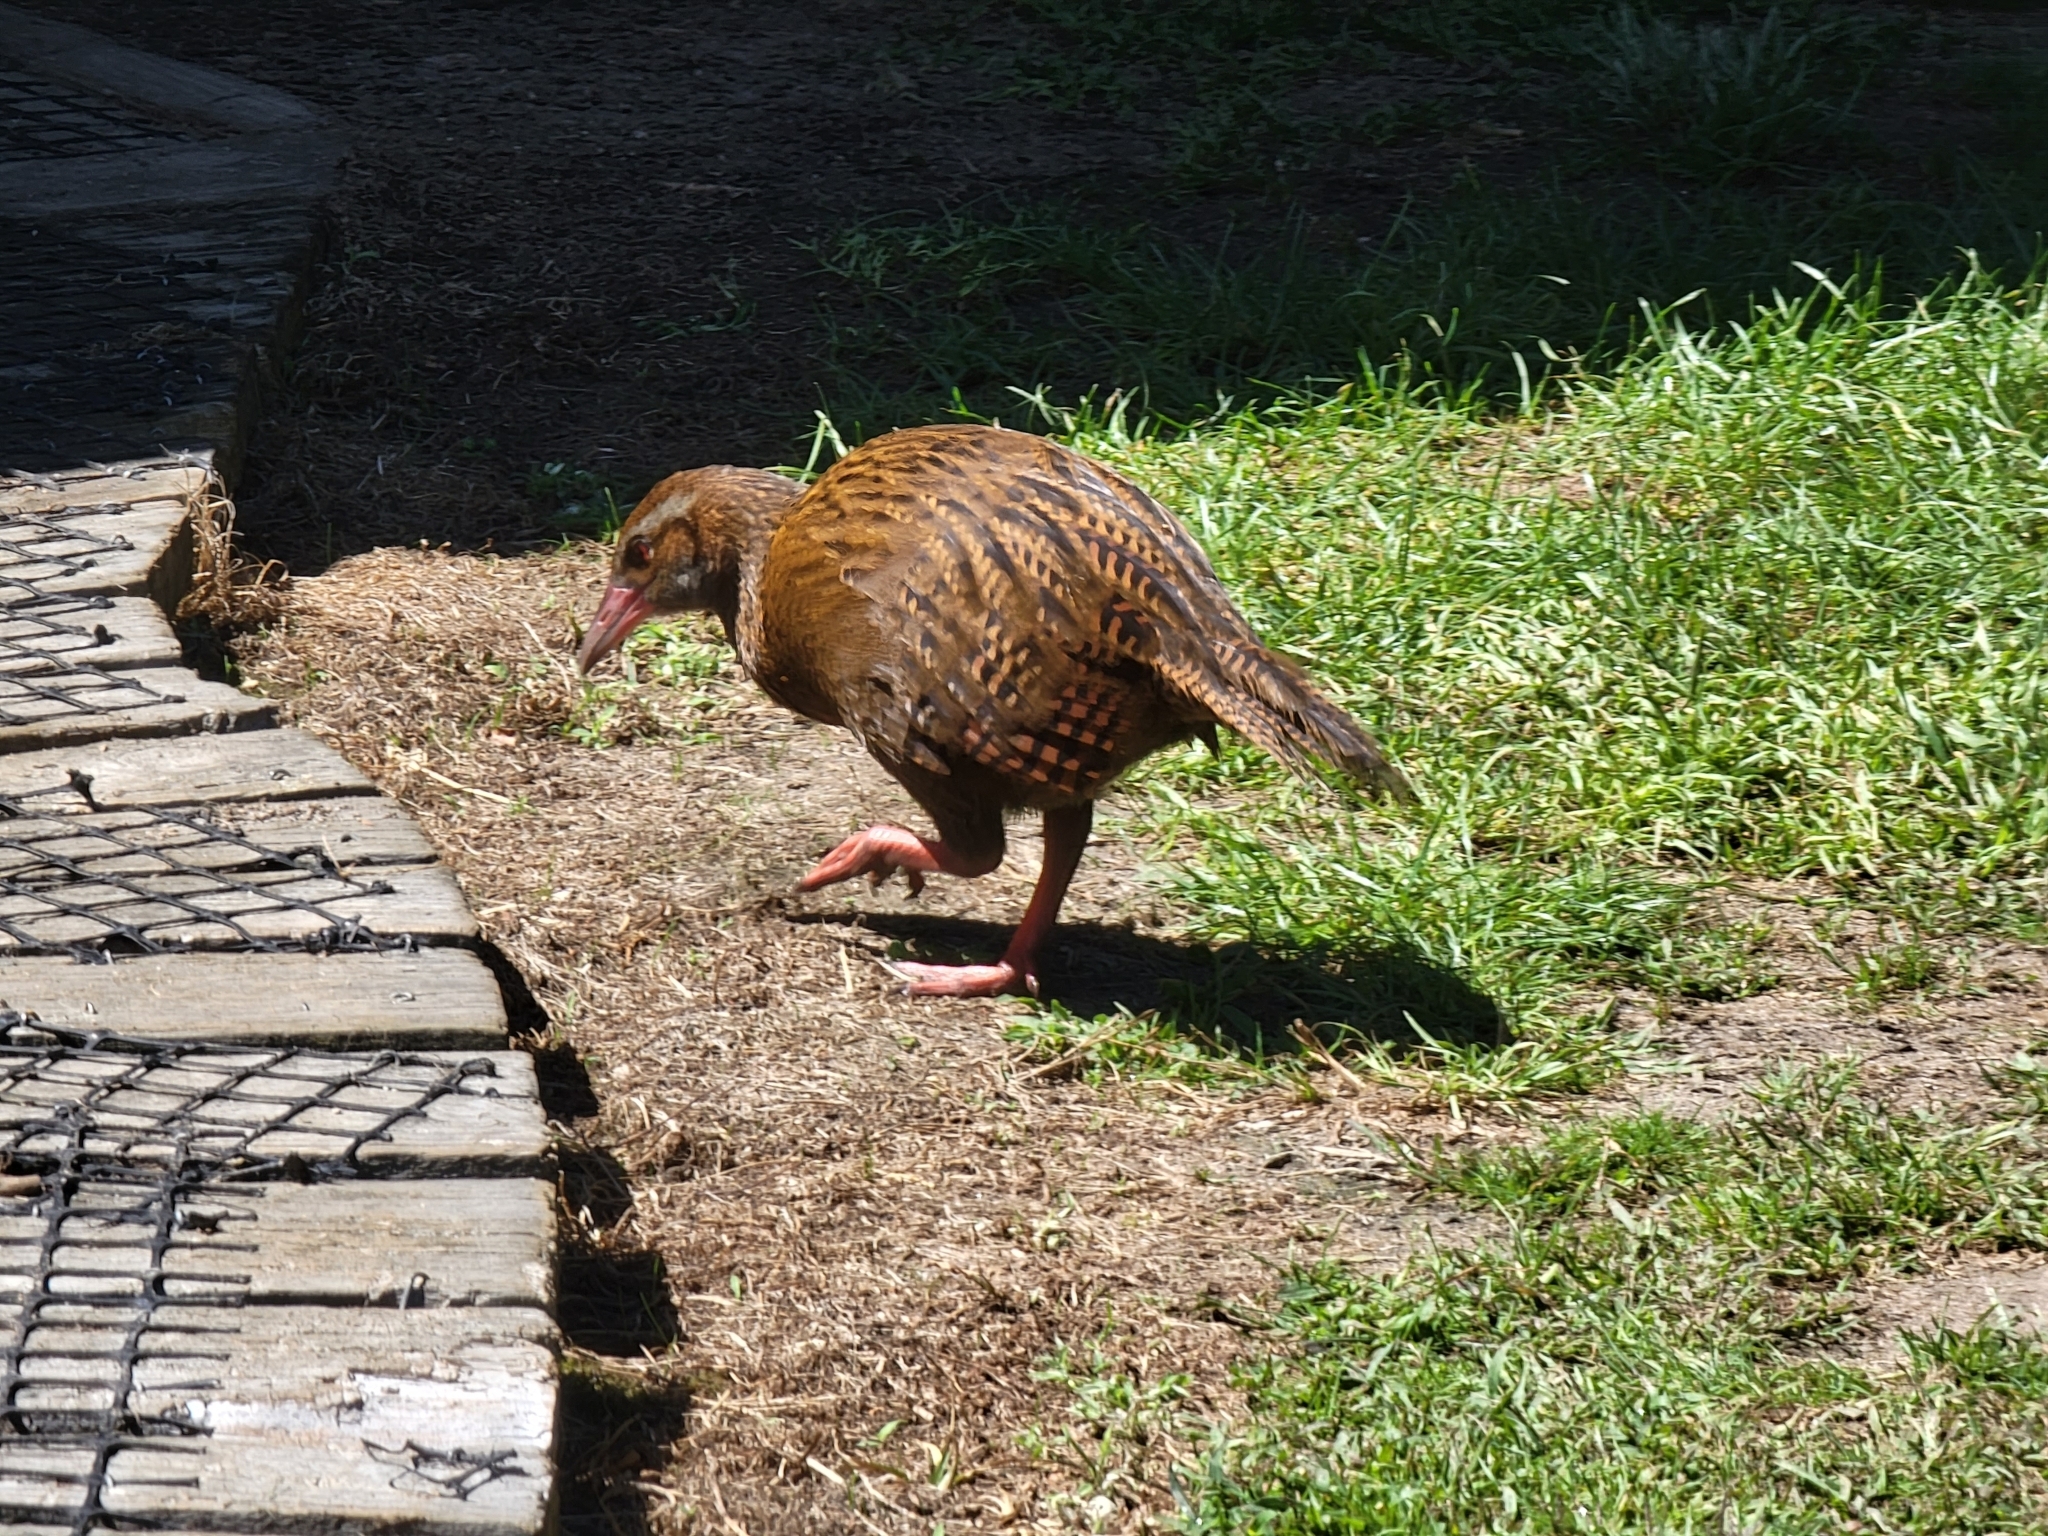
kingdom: Animalia
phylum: Chordata
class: Aves
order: Gruiformes
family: Rallidae
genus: Gallirallus
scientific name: Gallirallus australis
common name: Weka
